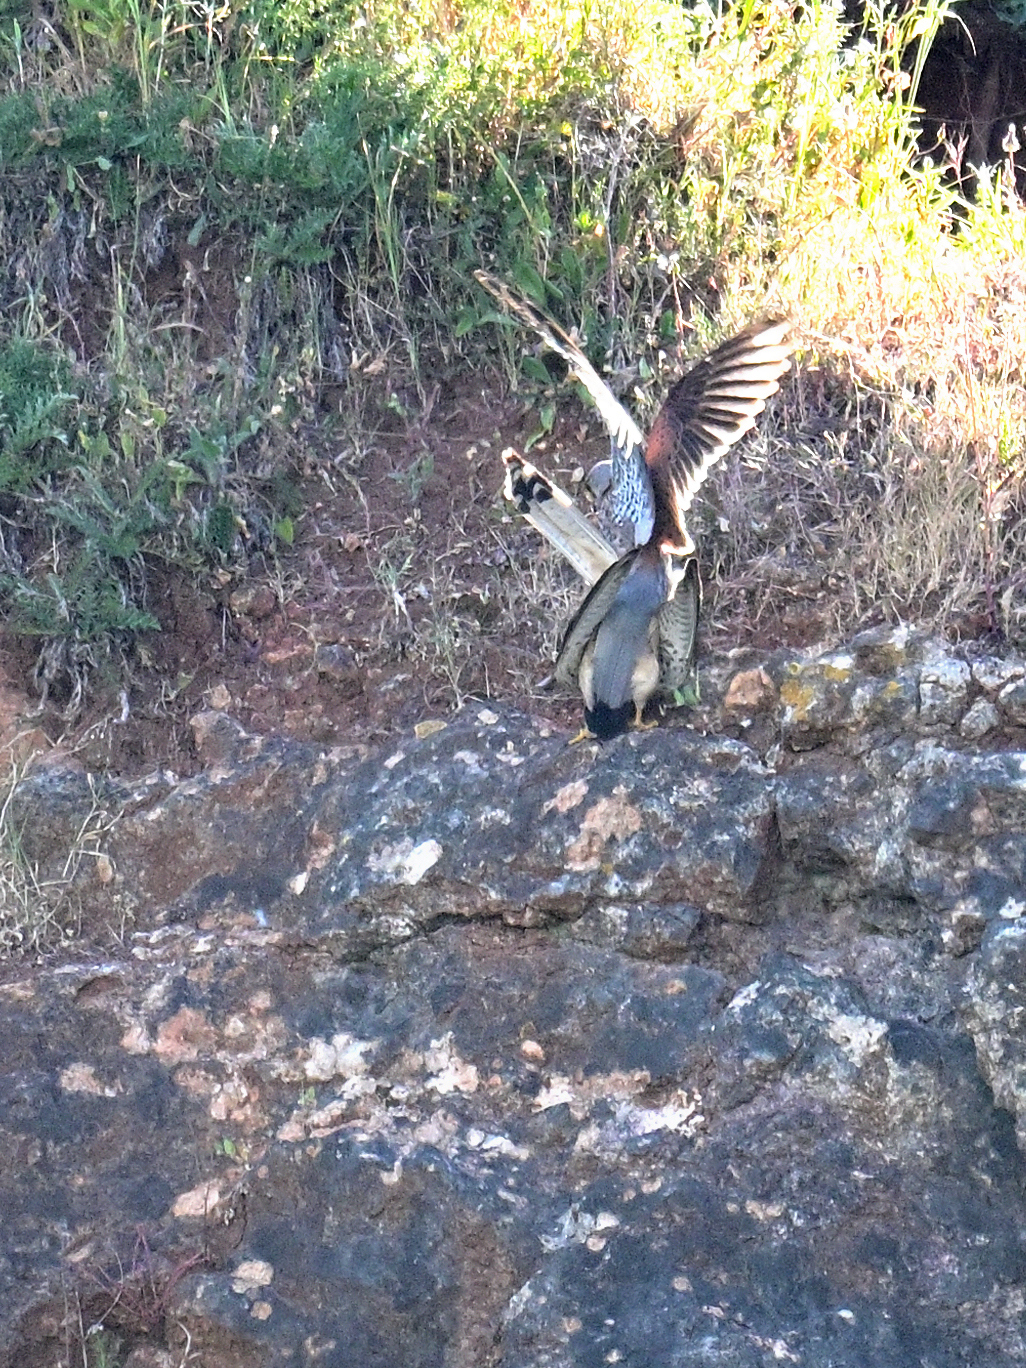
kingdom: Animalia
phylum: Chordata
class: Aves
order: Falconiformes
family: Falconidae
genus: Falco
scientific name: Falco tinnunculus
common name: Common kestrel
